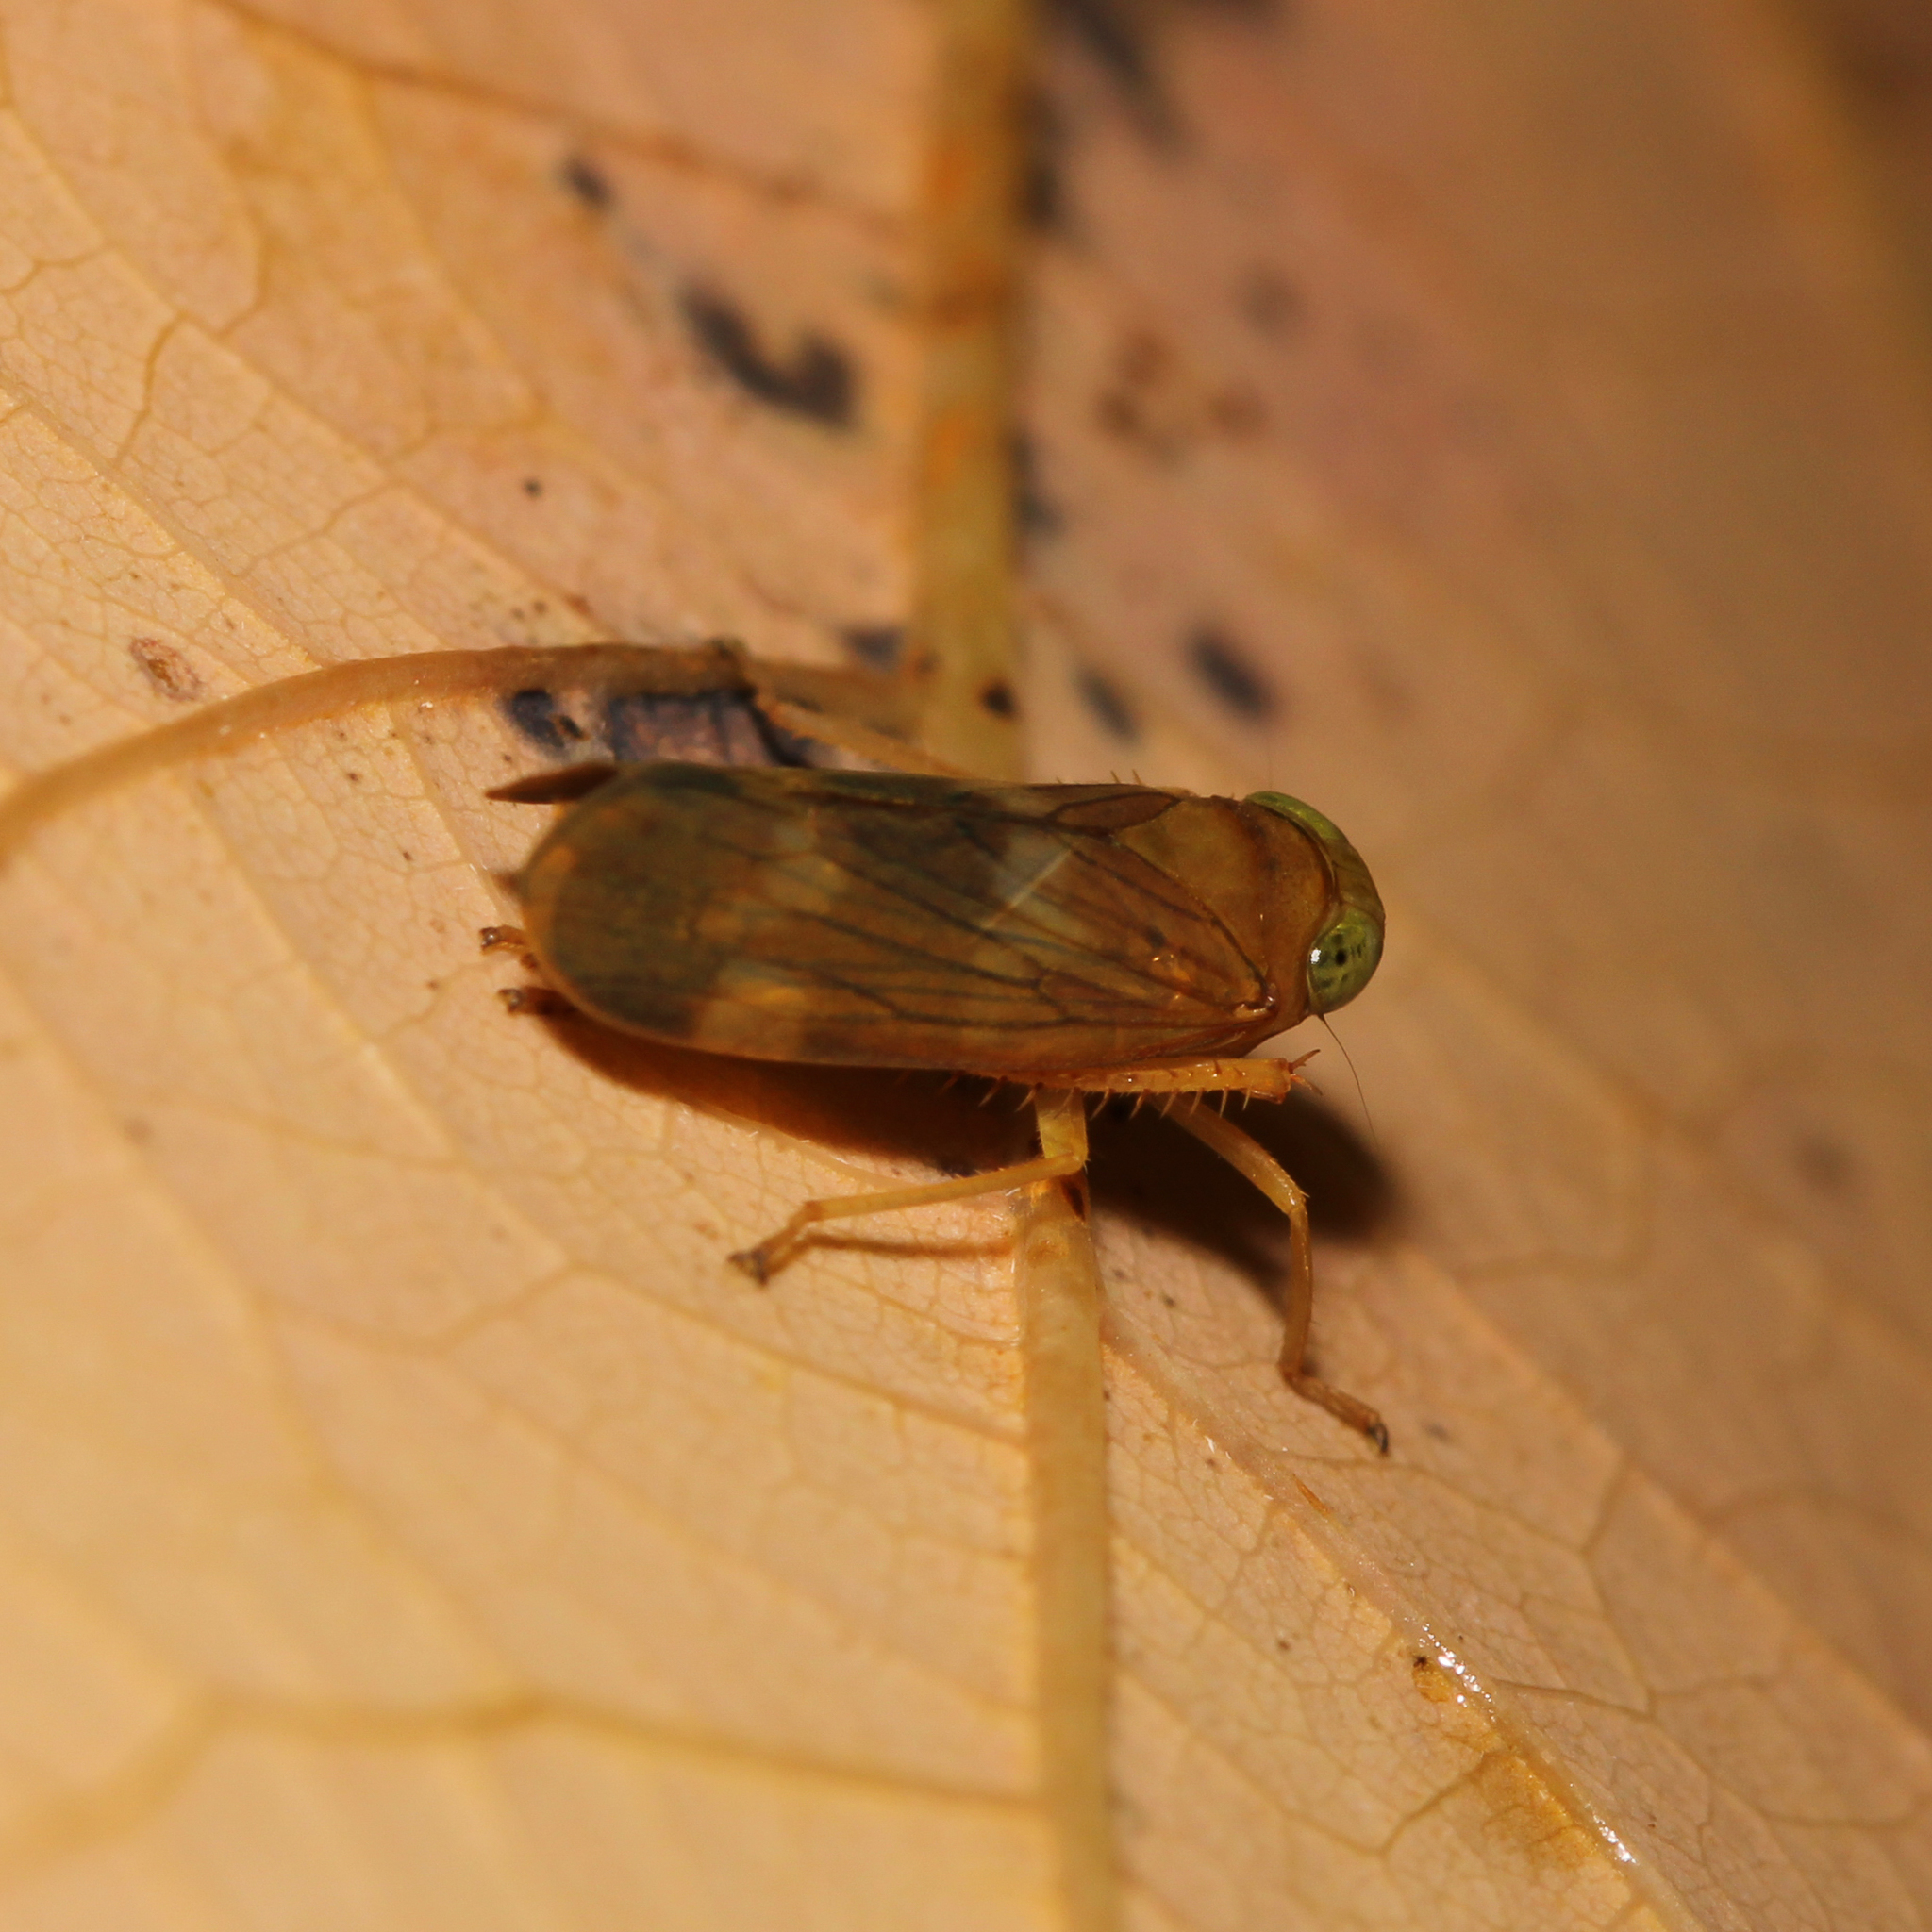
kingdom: Animalia
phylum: Arthropoda
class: Insecta
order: Hemiptera
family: Cicadellidae
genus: Jikradia
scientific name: Jikradia olitoria
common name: Coppery leafhopper
